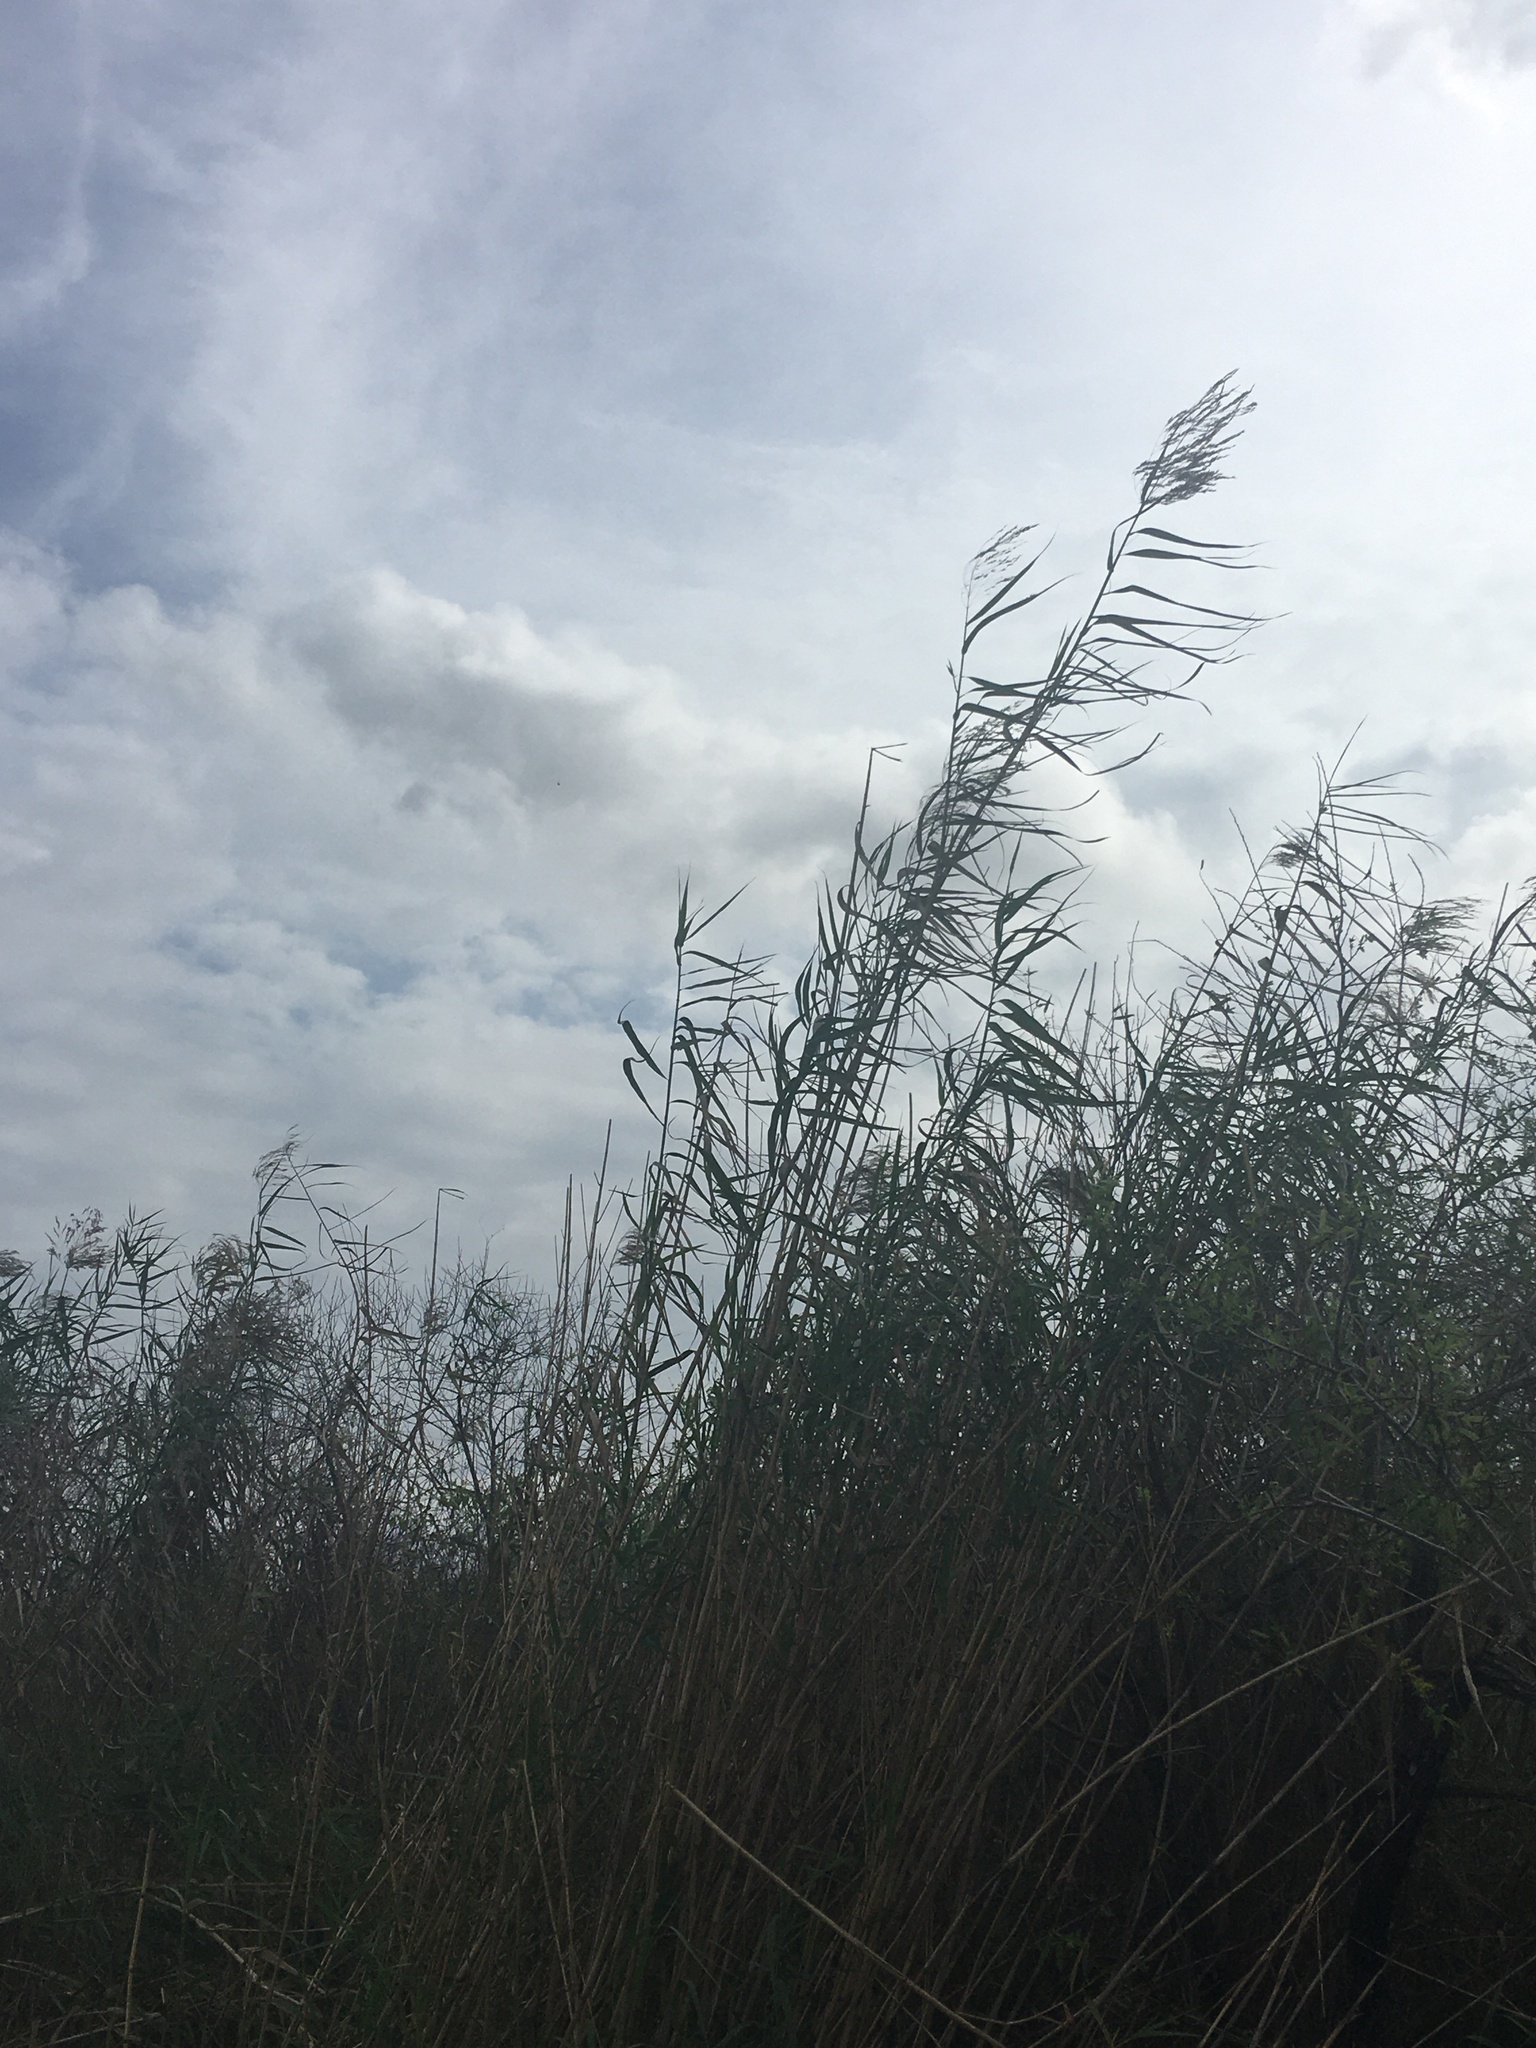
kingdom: Plantae
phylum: Tracheophyta
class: Liliopsida
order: Poales
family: Poaceae
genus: Phragmites
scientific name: Phragmites australis
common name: Common reed
